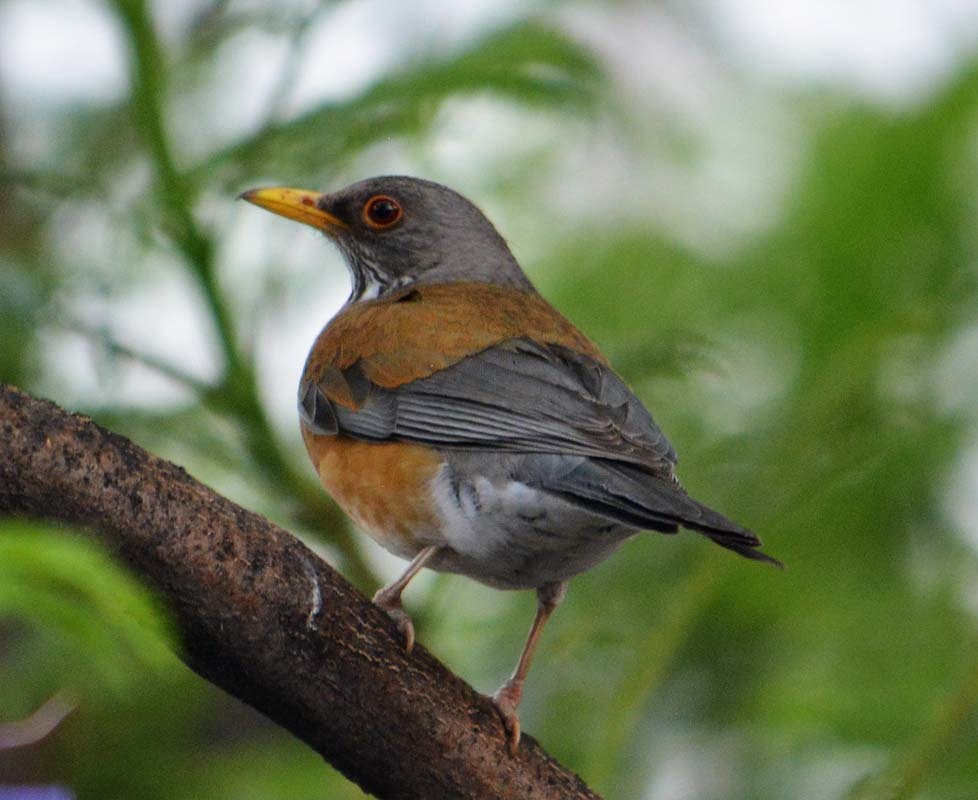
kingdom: Animalia
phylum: Chordata
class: Aves
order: Passeriformes
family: Turdidae
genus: Turdus
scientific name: Turdus rufopalliatus
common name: Rufous-backed robin
